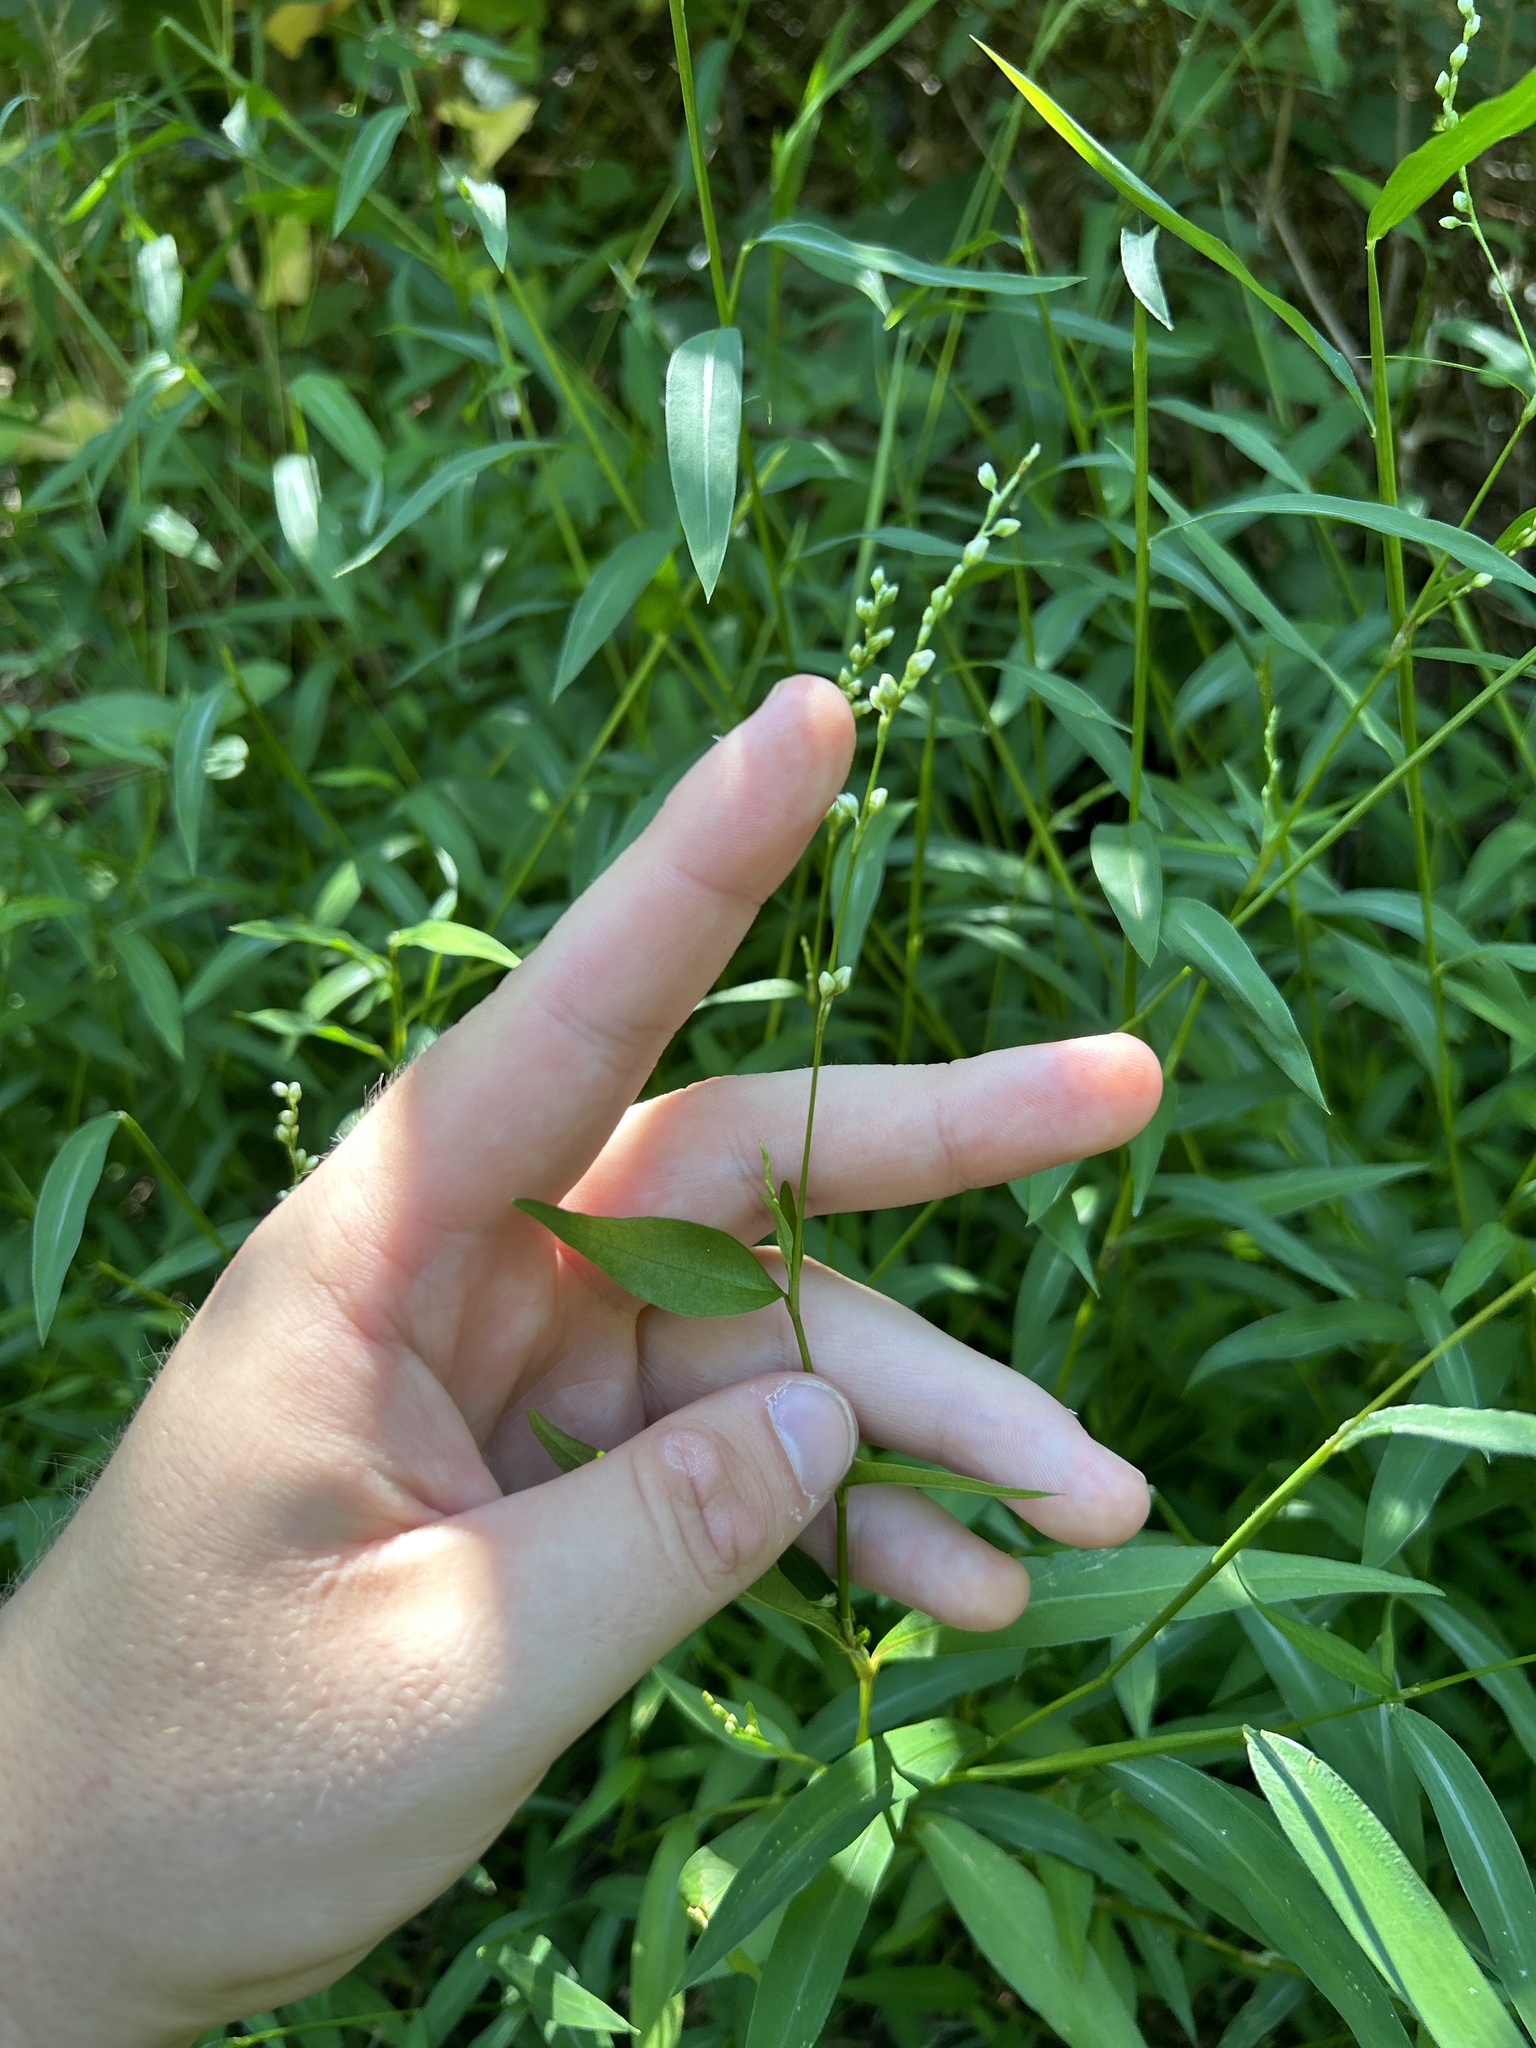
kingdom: Plantae
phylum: Tracheophyta
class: Magnoliopsida
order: Caryophyllales
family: Polygonaceae
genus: Persicaria
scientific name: Persicaria punctata
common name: Dotted smartweed
